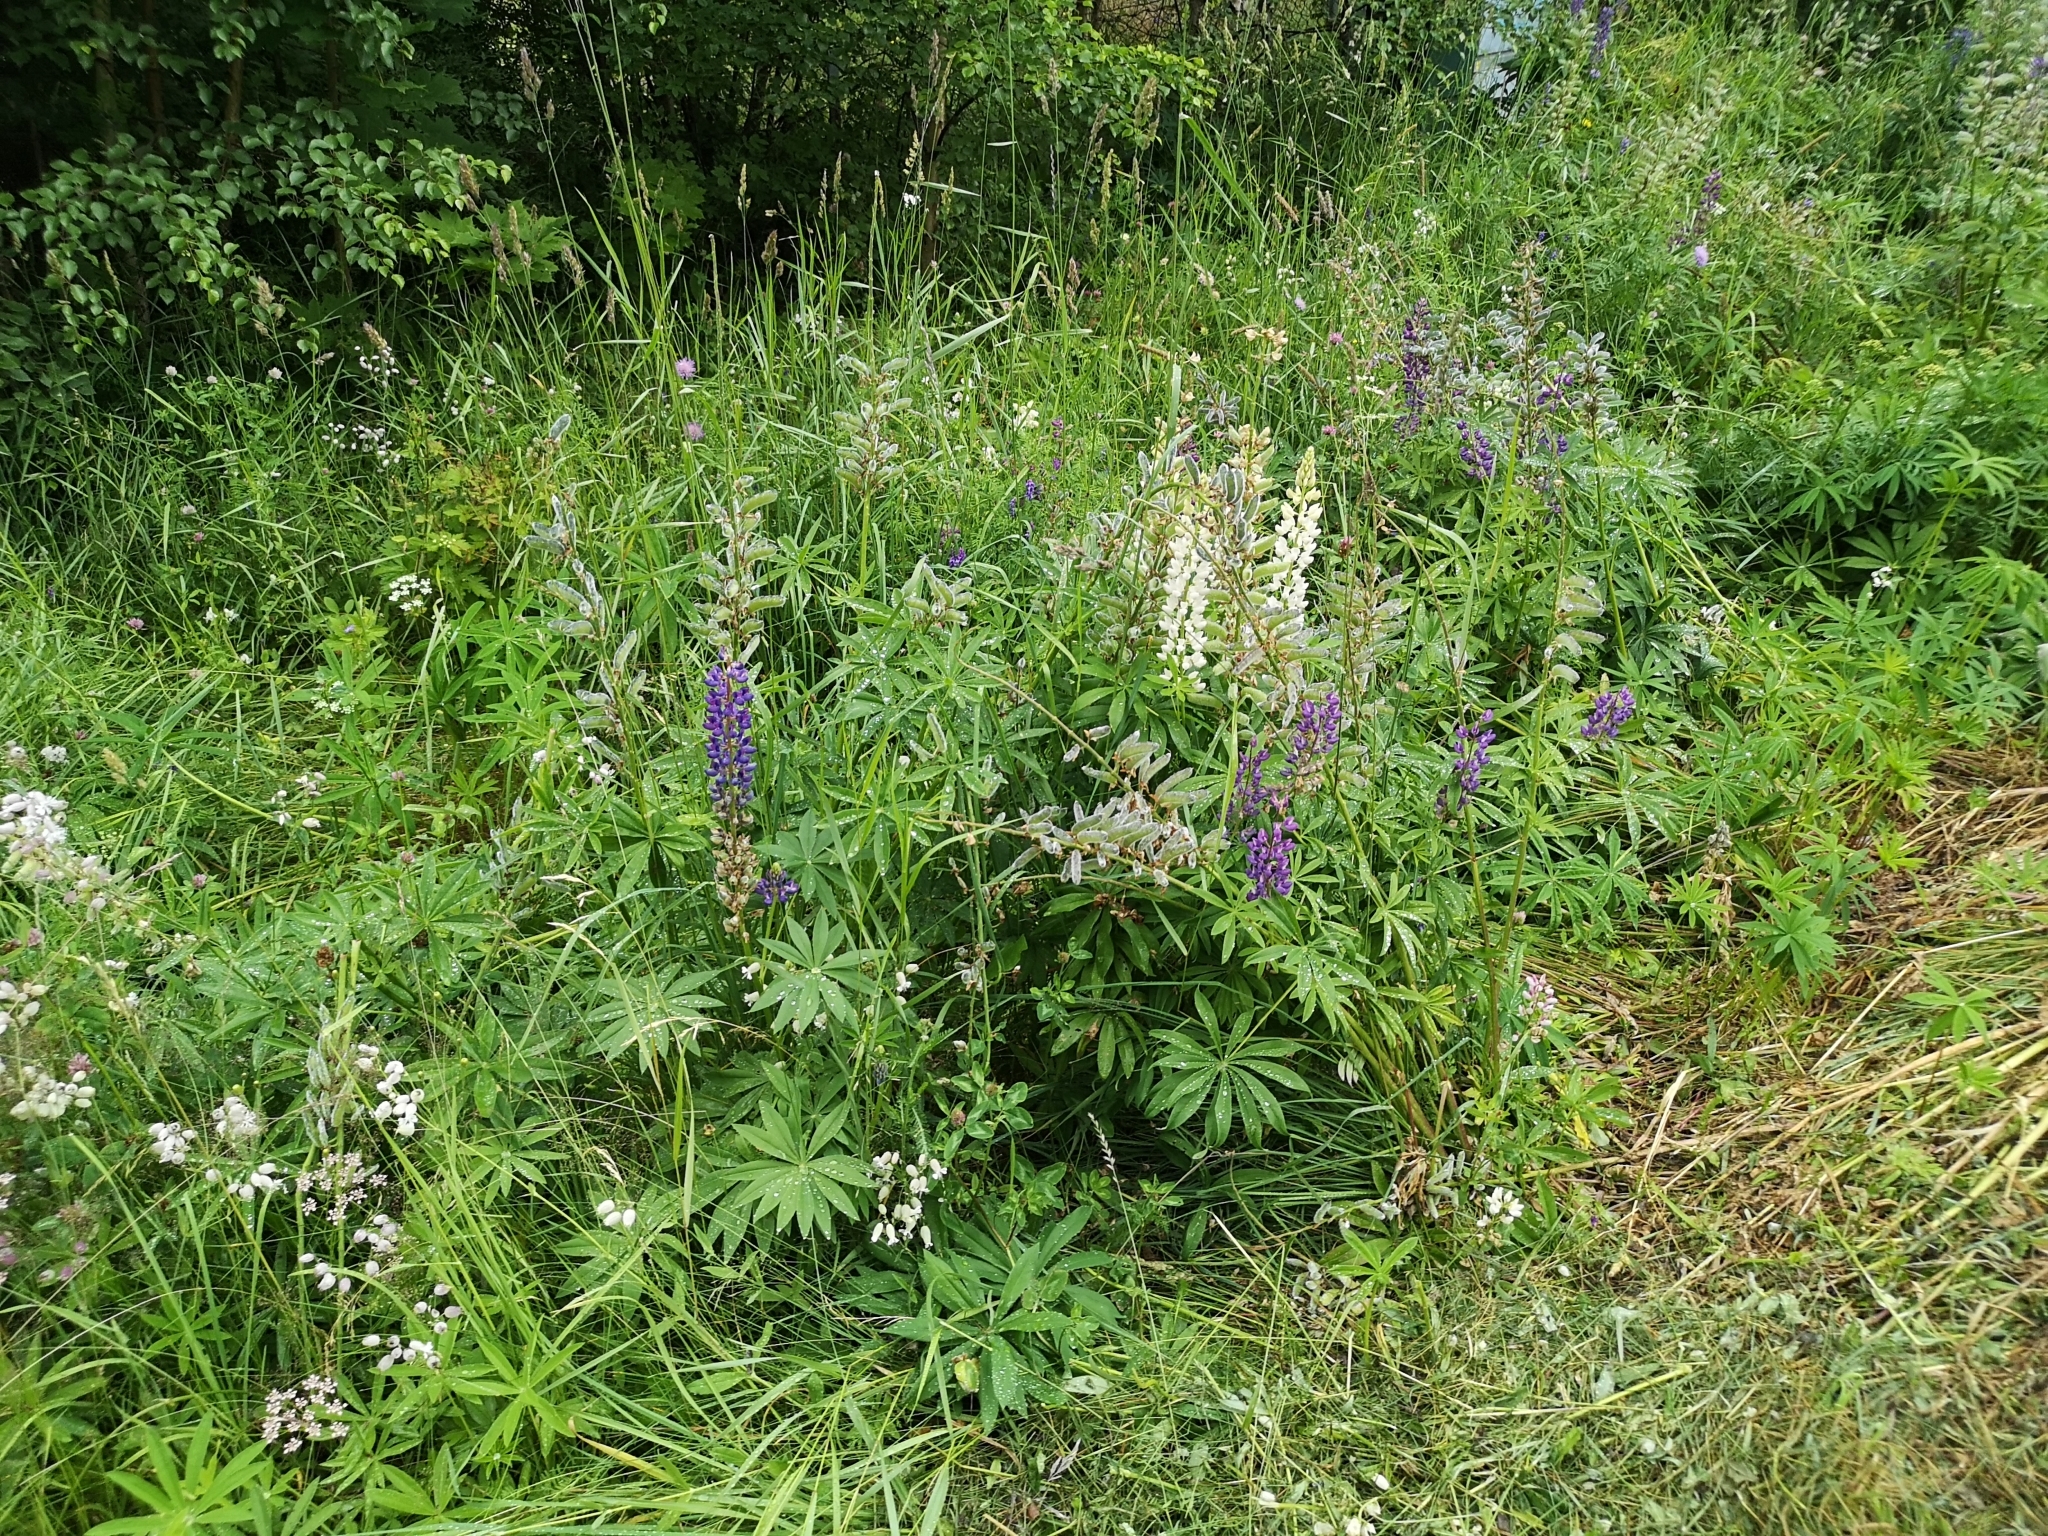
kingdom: Plantae
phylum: Tracheophyta
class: Magnoliopsida
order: Fabales
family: Fabaceae
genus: Lupinus
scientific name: Lupinus polyphyllus
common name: Garden lupin
